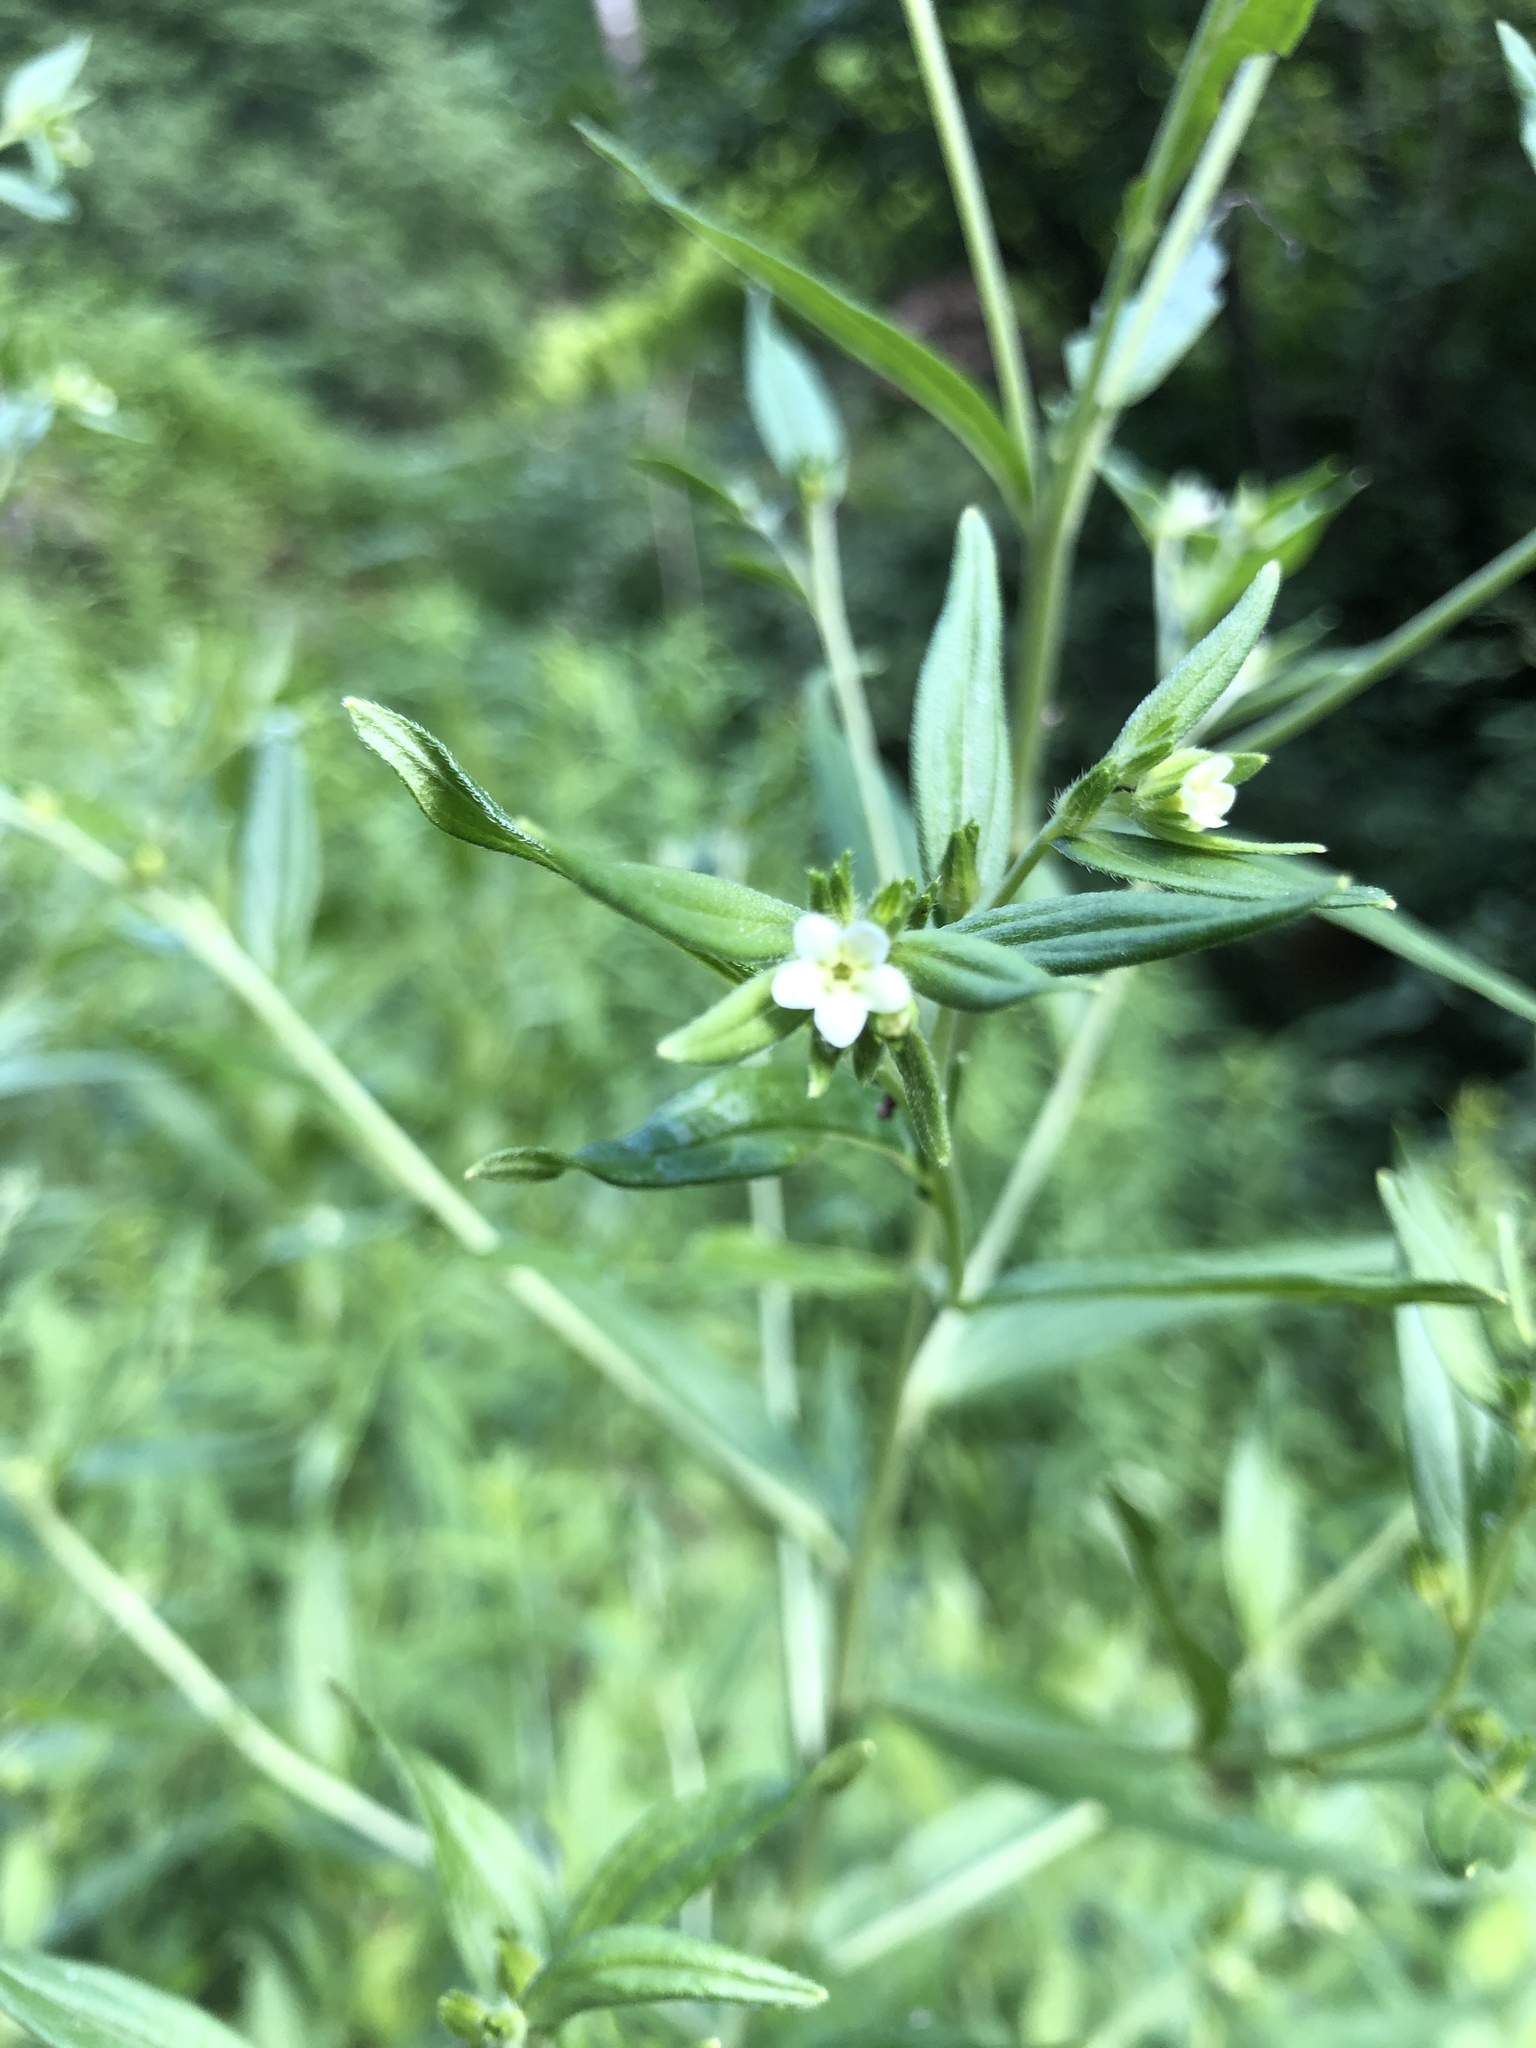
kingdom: Plantae
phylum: Tracheophyta
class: Magnoliopsida
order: Boraginales
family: Boraginaceae
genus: Lithospermum
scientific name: Lithospermum officinale
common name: Common gromwell
